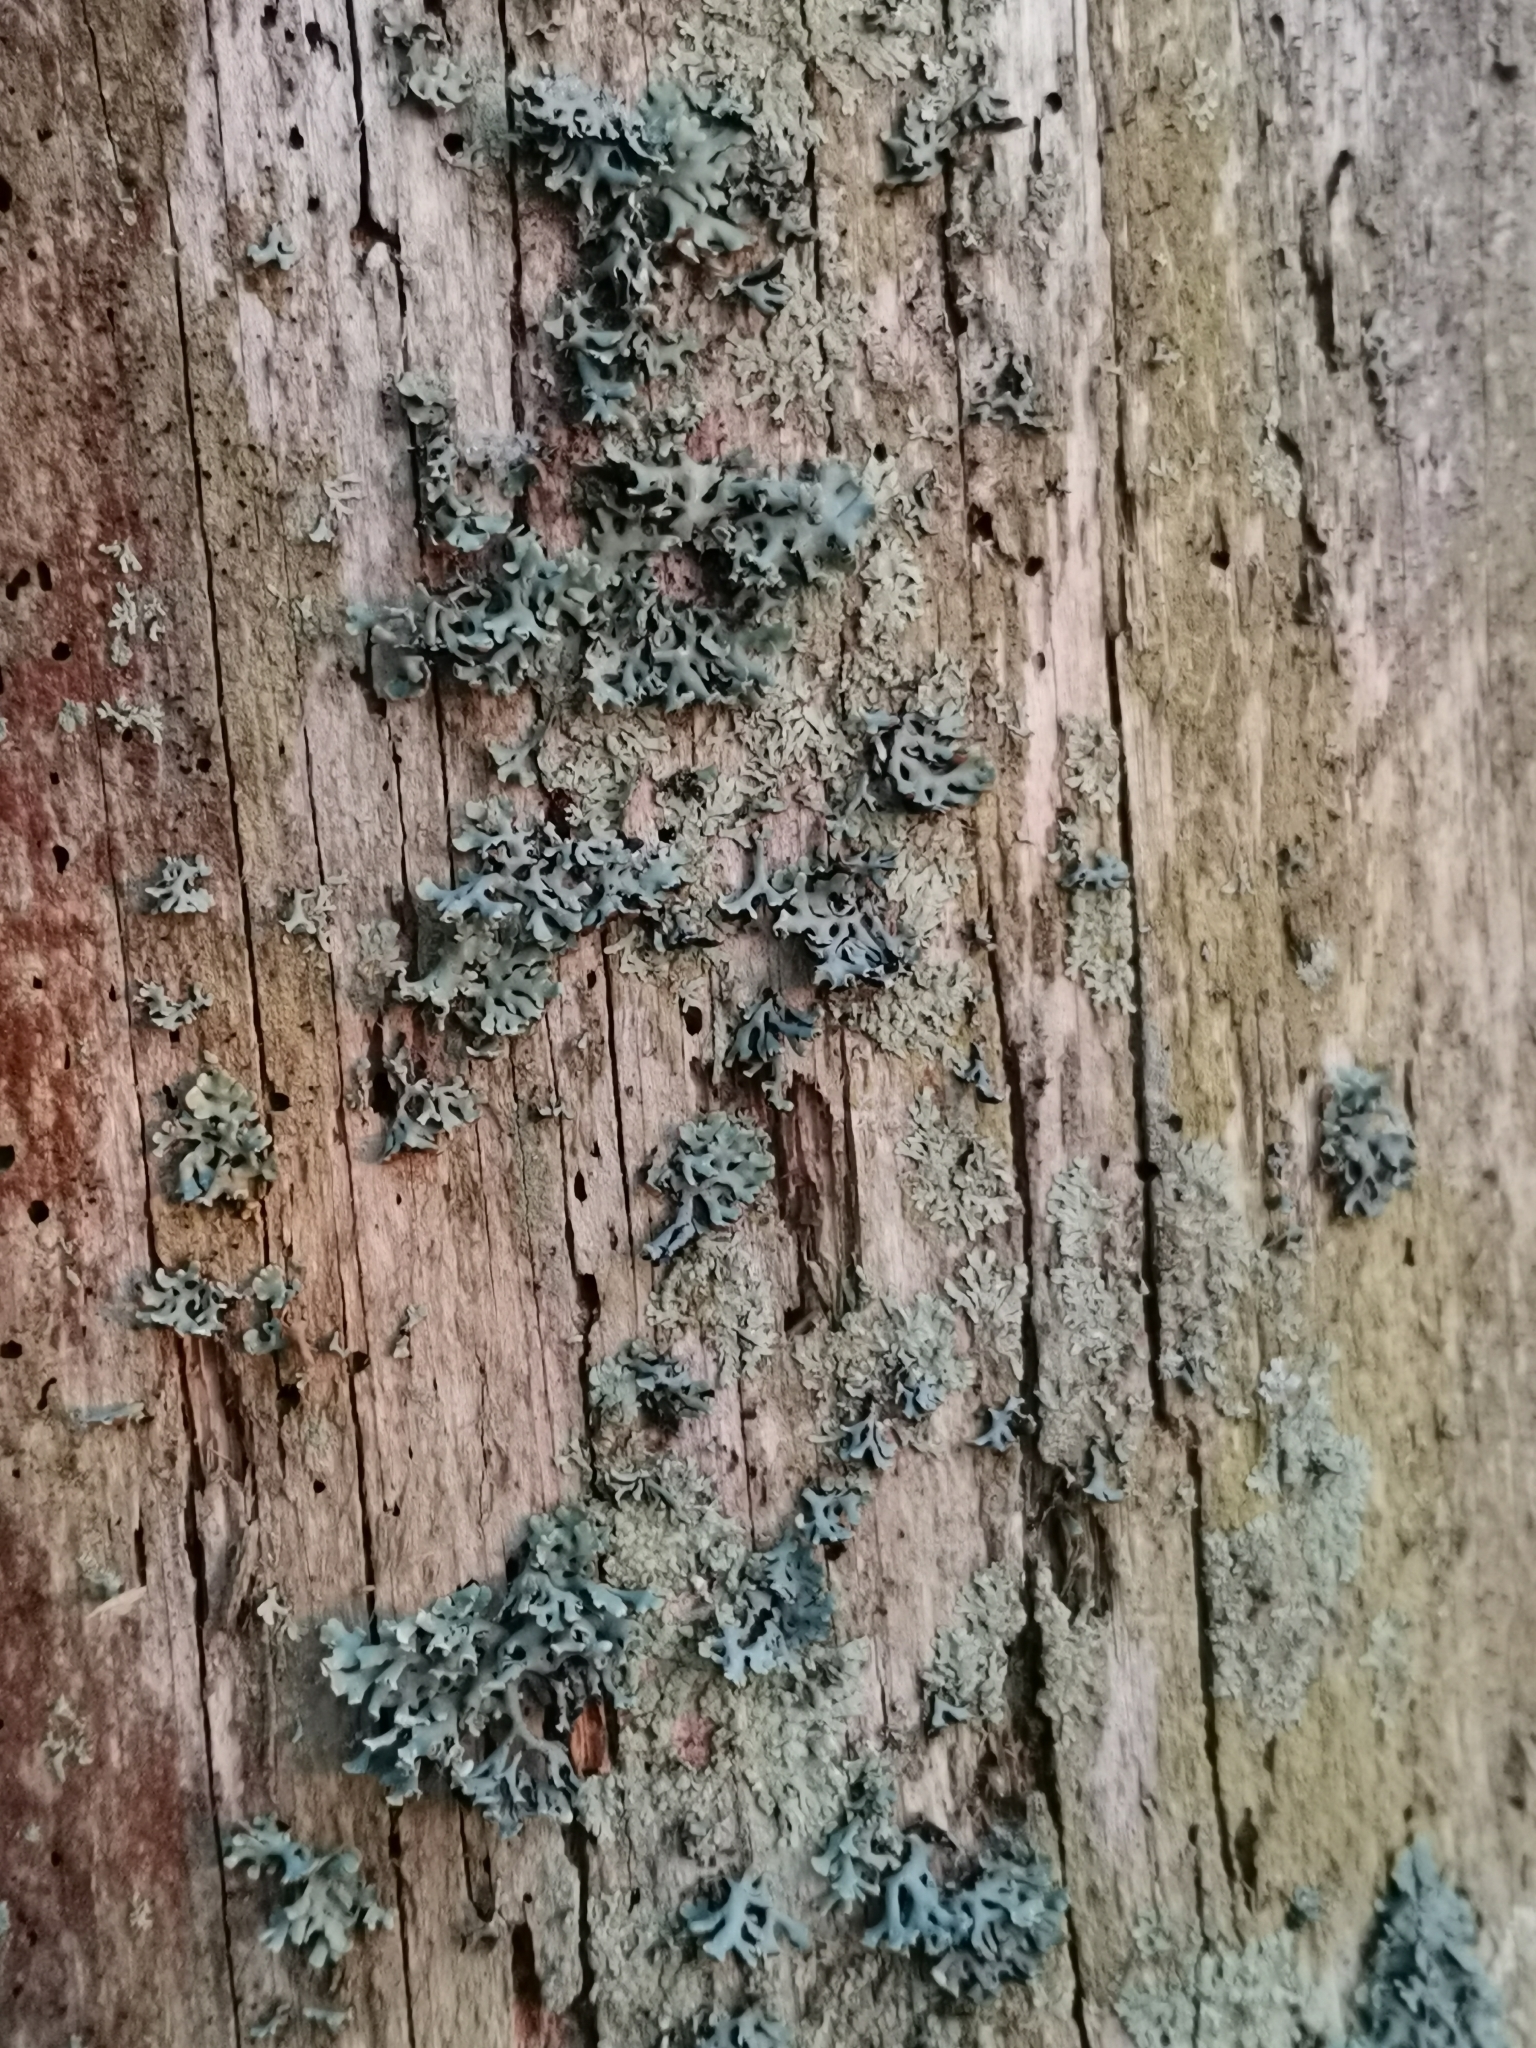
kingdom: Fungi
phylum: Ascomycota
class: Lecanoromycetes
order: Lecanorales
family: Parmeliaceae
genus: Hypogymnia
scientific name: Hypogymnia physodes
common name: Dark crottle
